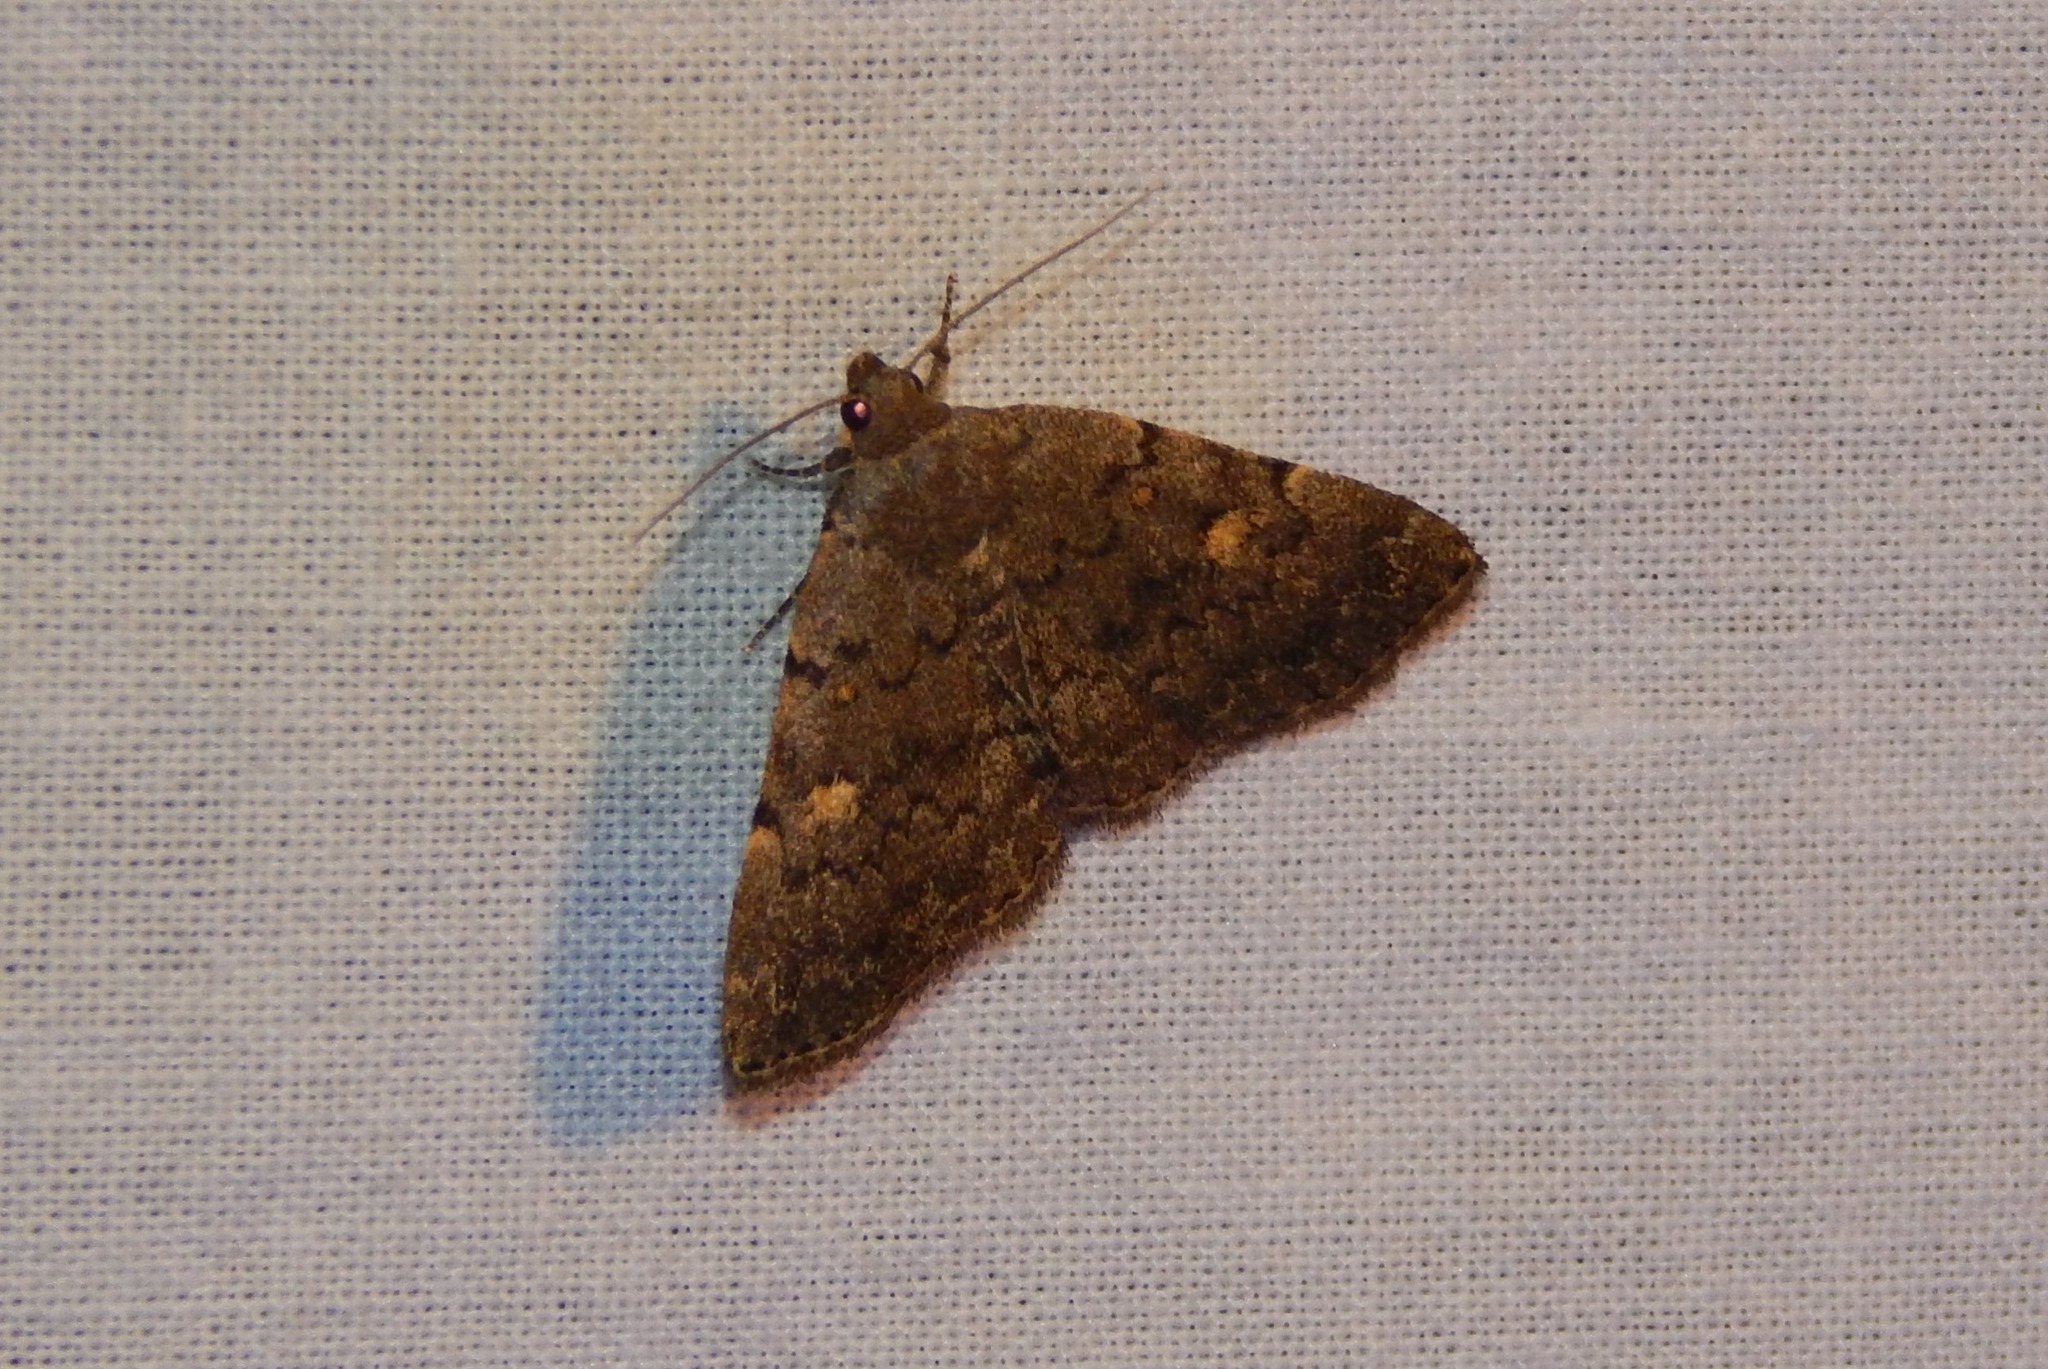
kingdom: Animalia
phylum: Arthropoda
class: Insecta
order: Lepidoptera
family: Erebidae
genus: Idia
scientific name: Idia aemula
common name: Common idia moth
